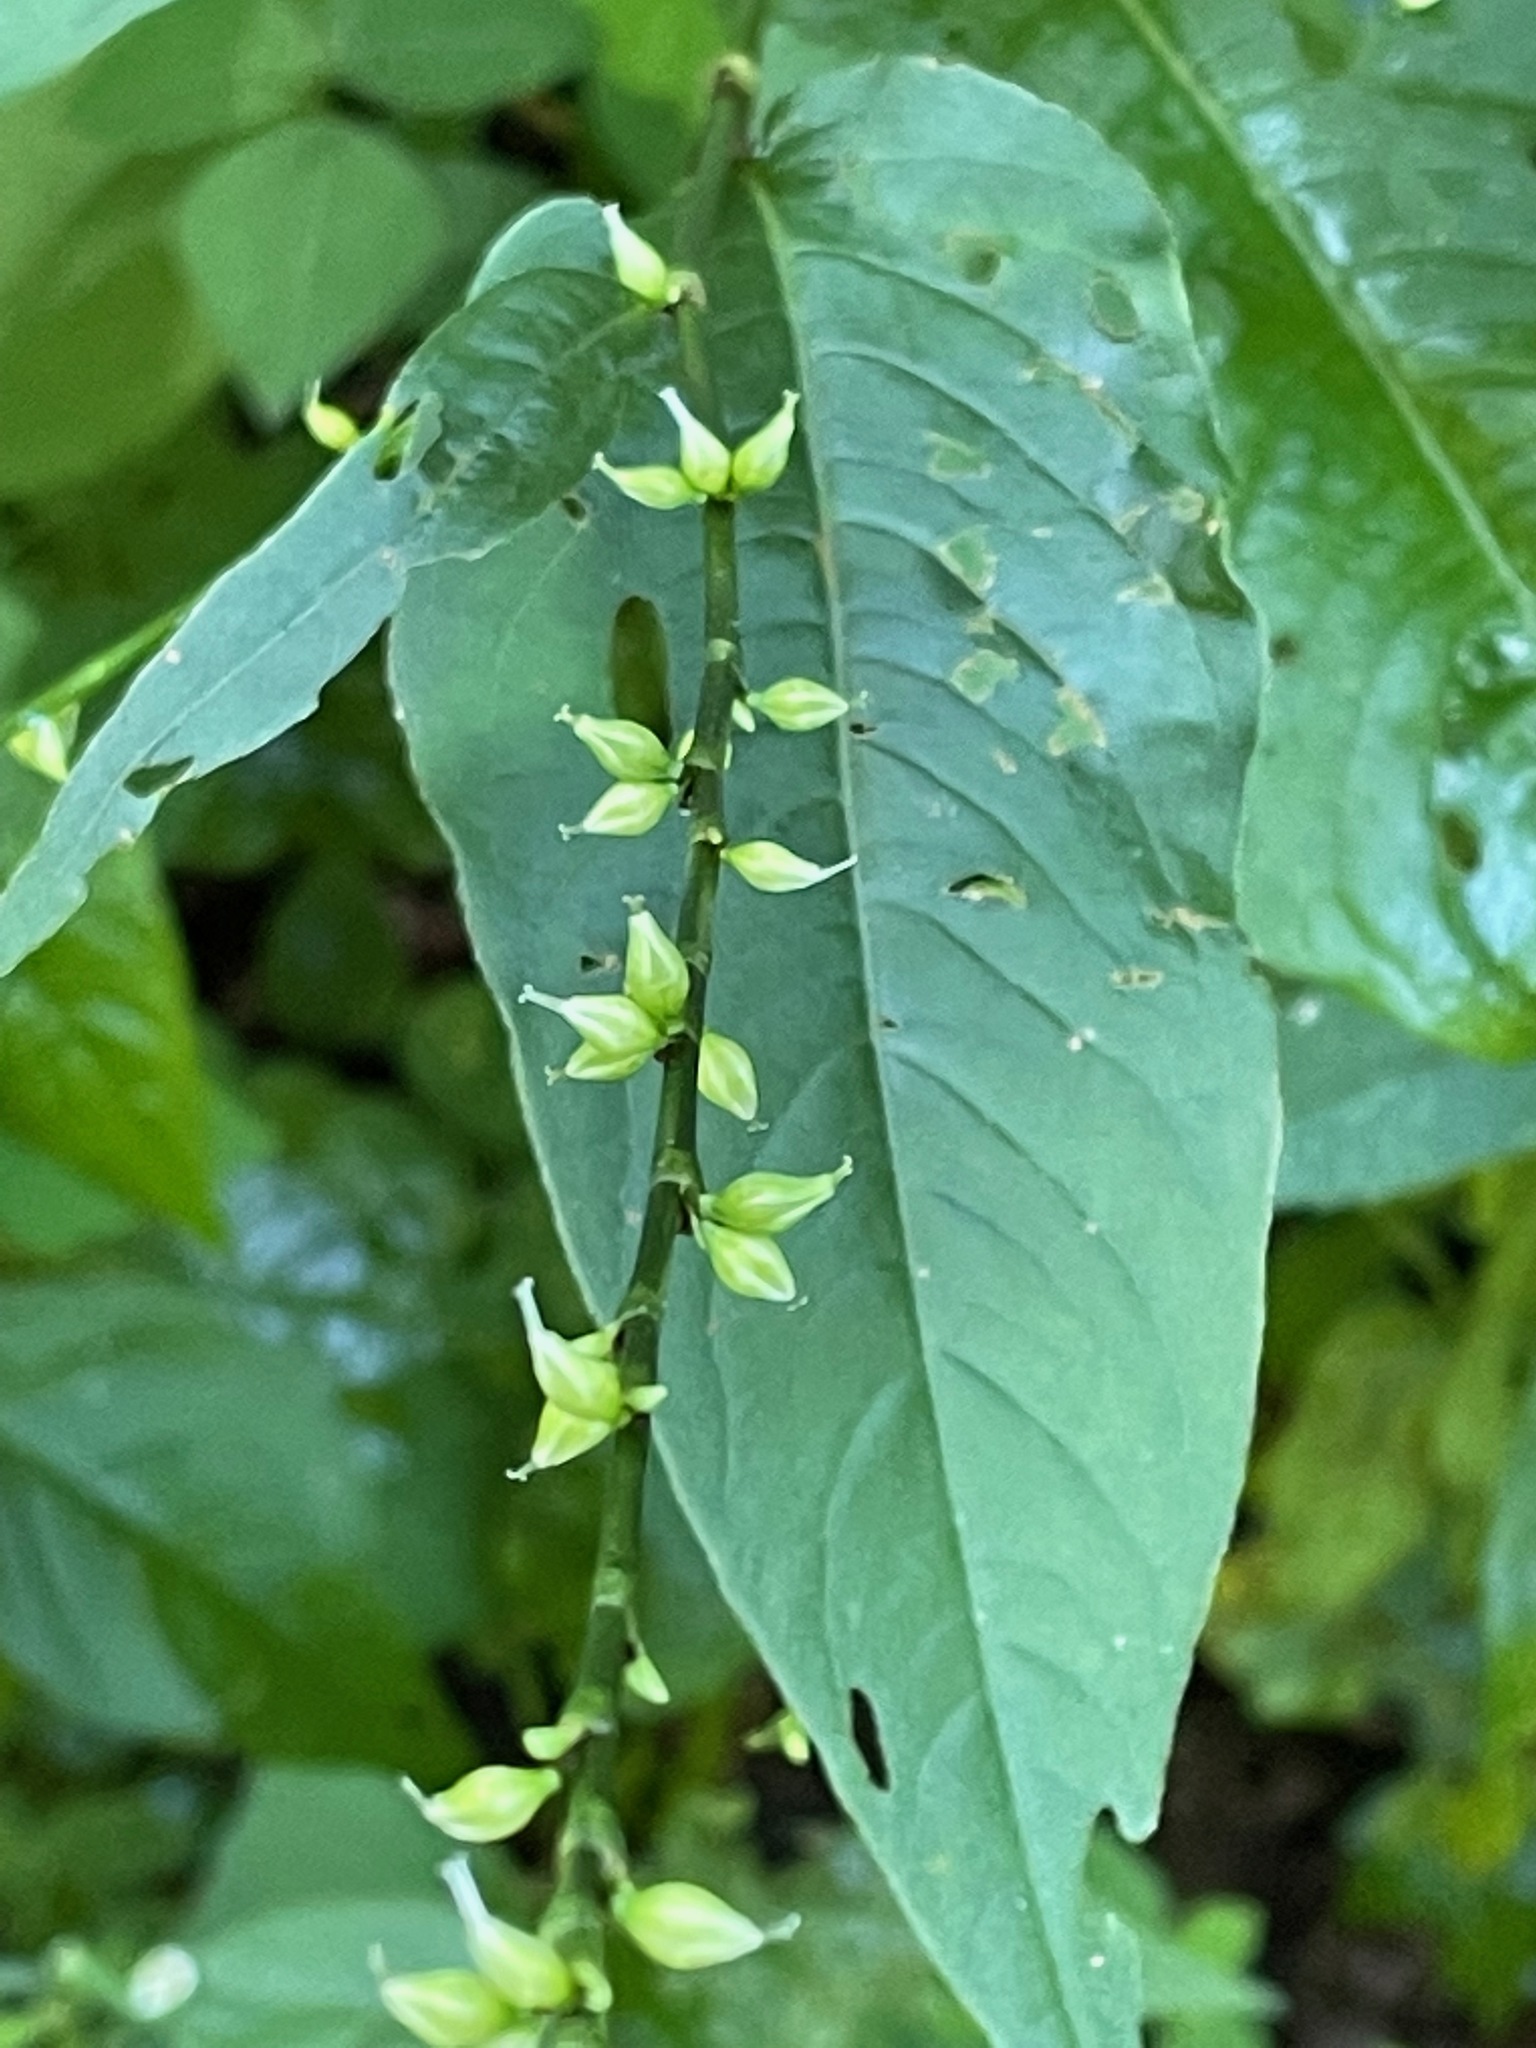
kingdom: Plantae
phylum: Tracheophyta
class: Magnoliopsida
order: Caryophyllales
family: Polygonaceae
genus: Persicaria
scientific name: Persicaria virginiana
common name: Jumpseed
